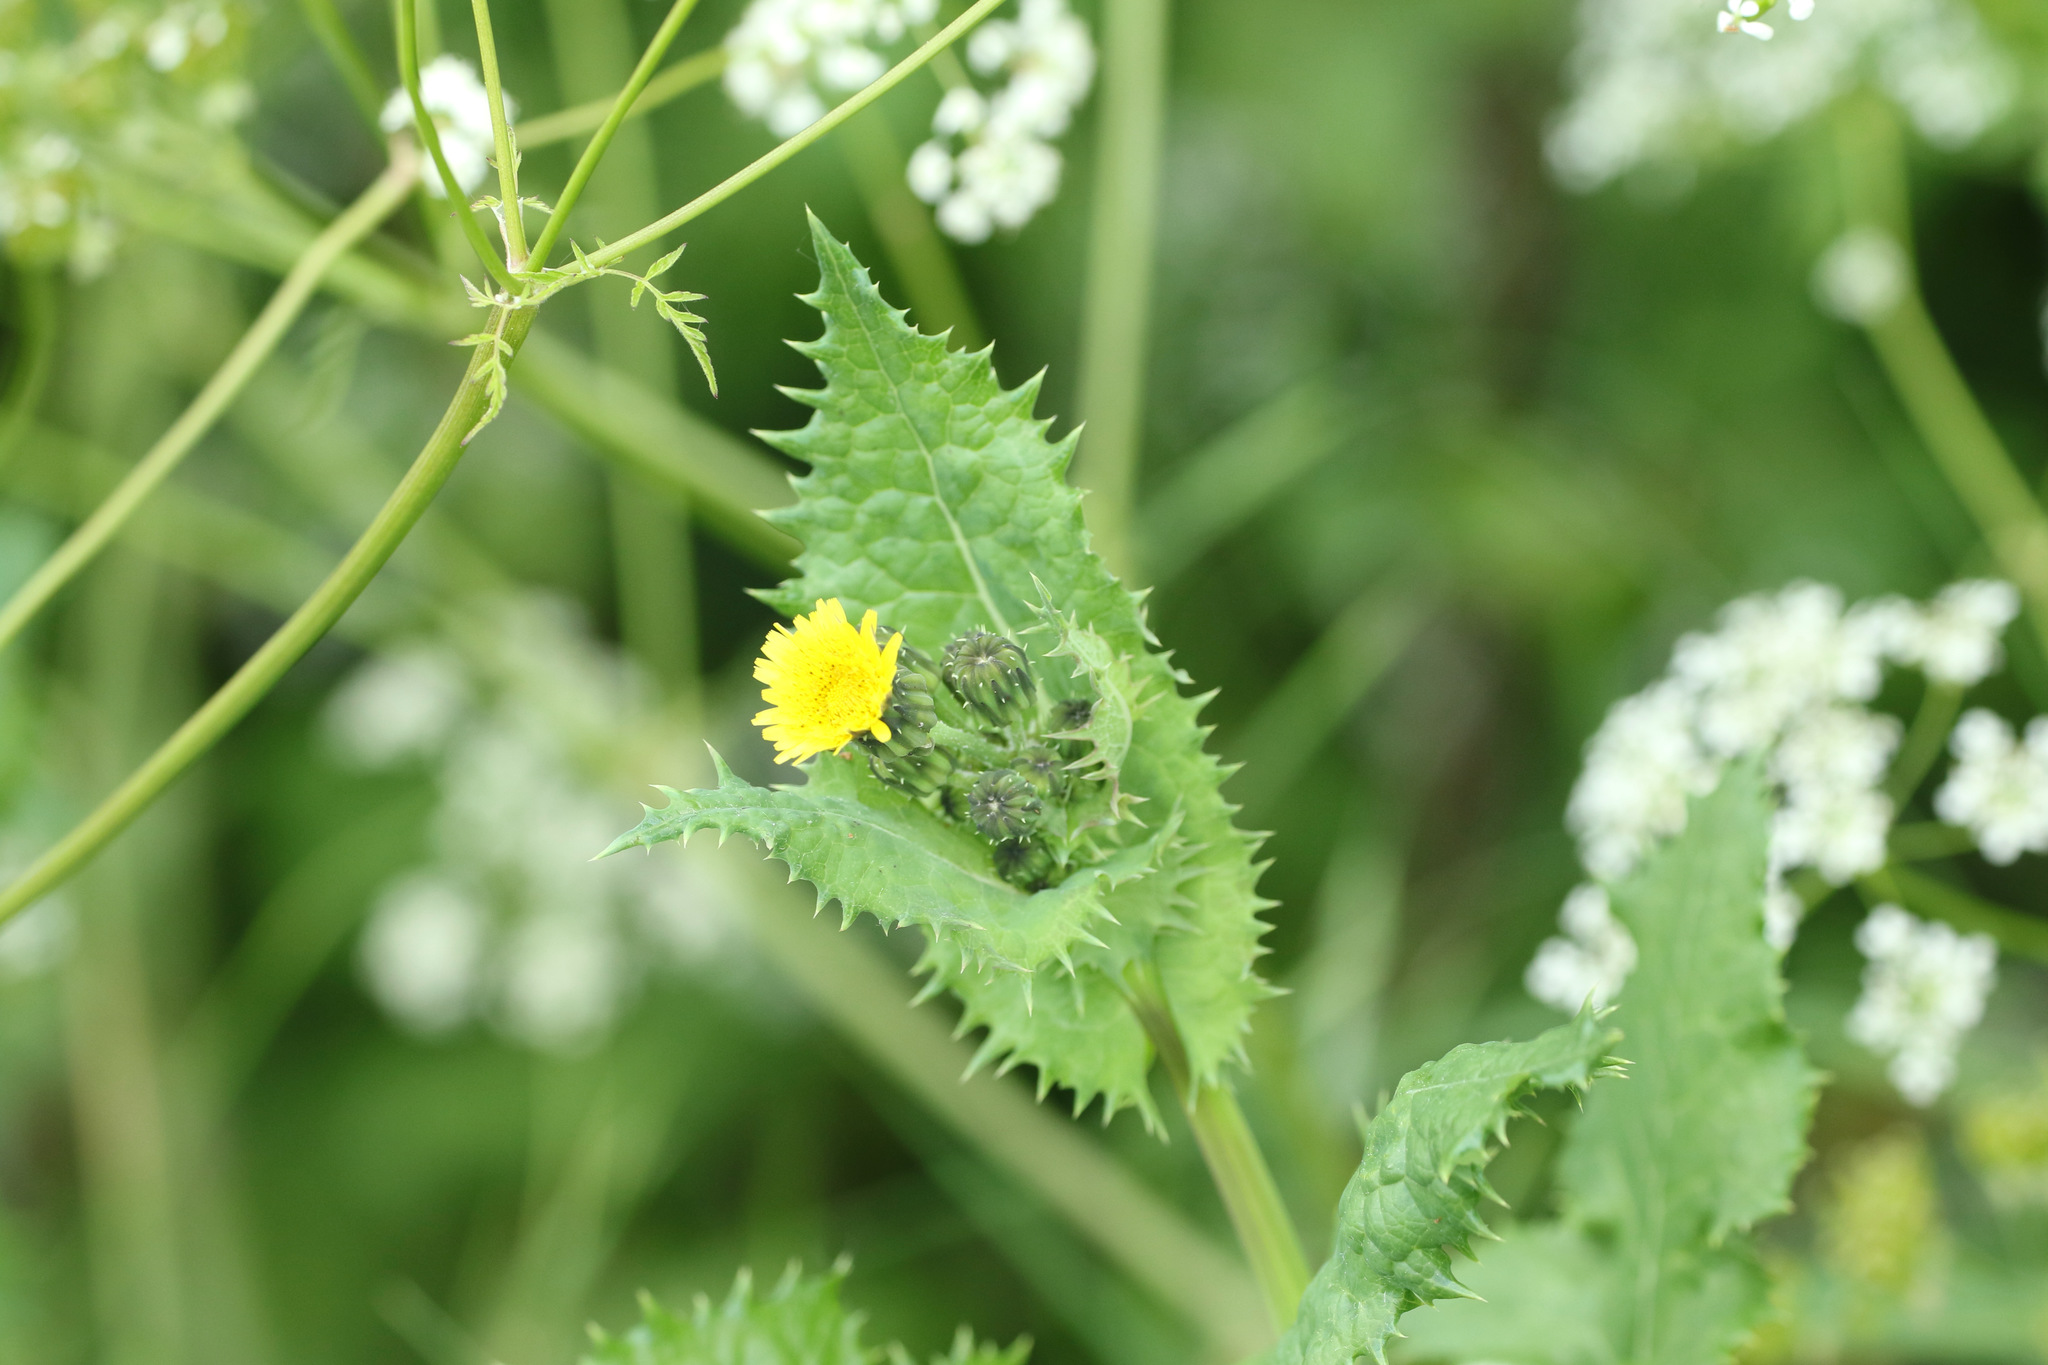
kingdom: Plantae
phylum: Tracheophyta
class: Magnoliopsida
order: Asterales
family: Asteraceae
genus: Sonchus
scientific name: Sonchus asper
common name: Prickly sow-thistle
